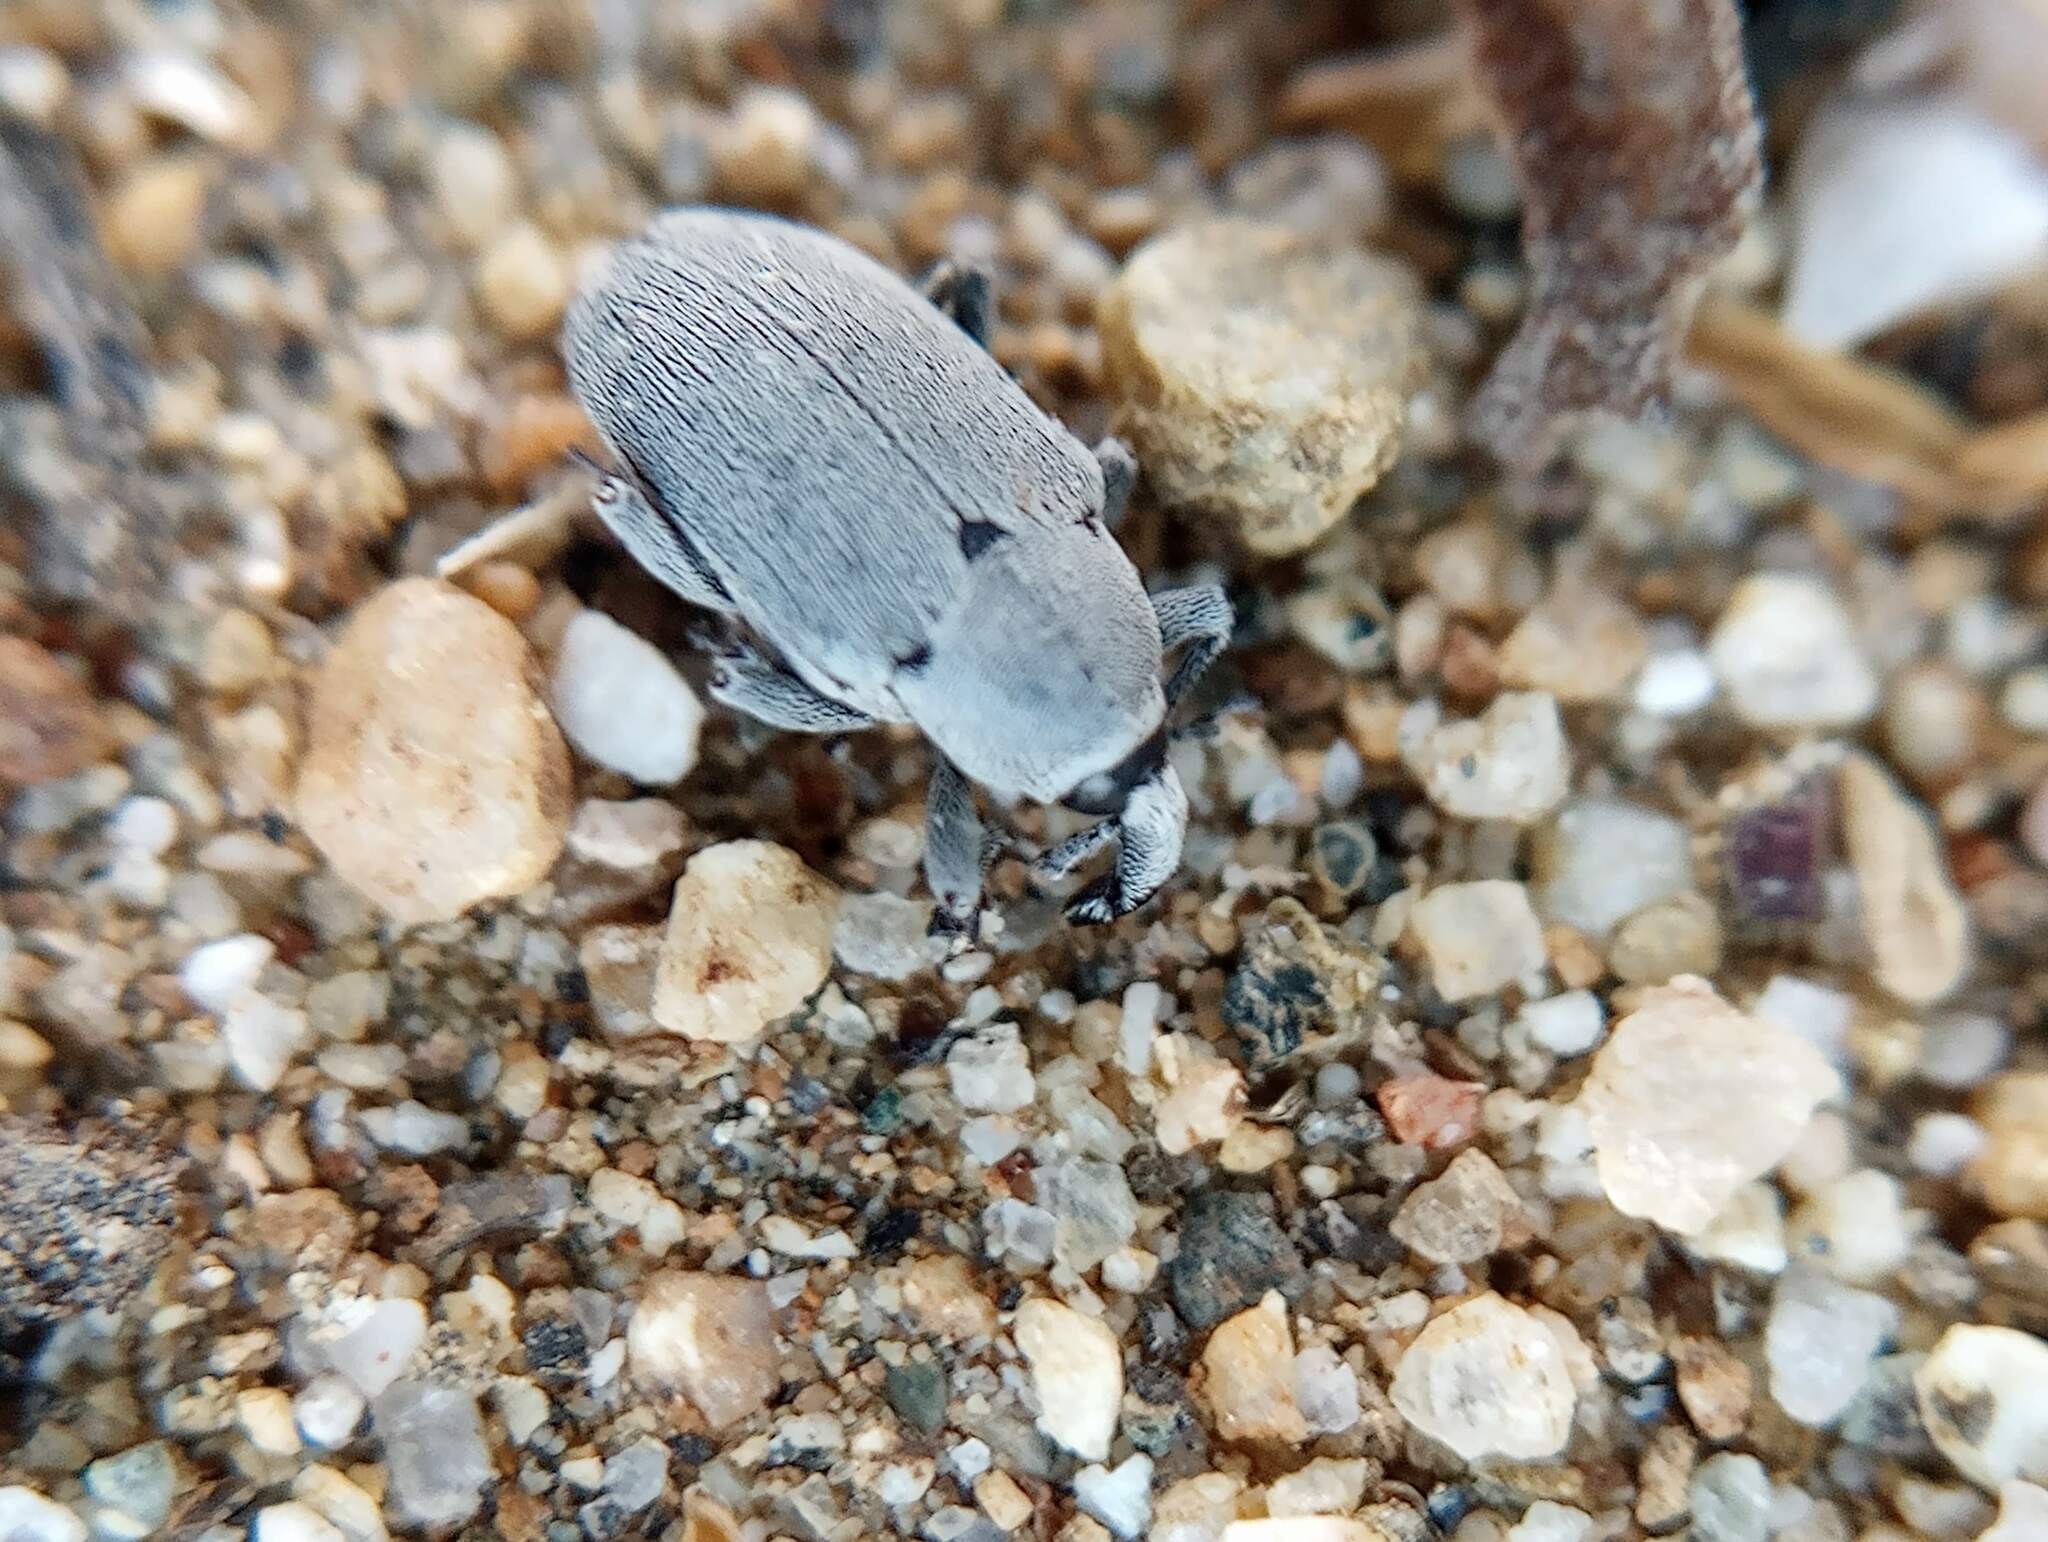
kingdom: Animalia
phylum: Arthropoda
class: Insecta
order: Coleoptera
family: Curculionidae
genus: Trichobaris
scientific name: Trichobaris compacta
